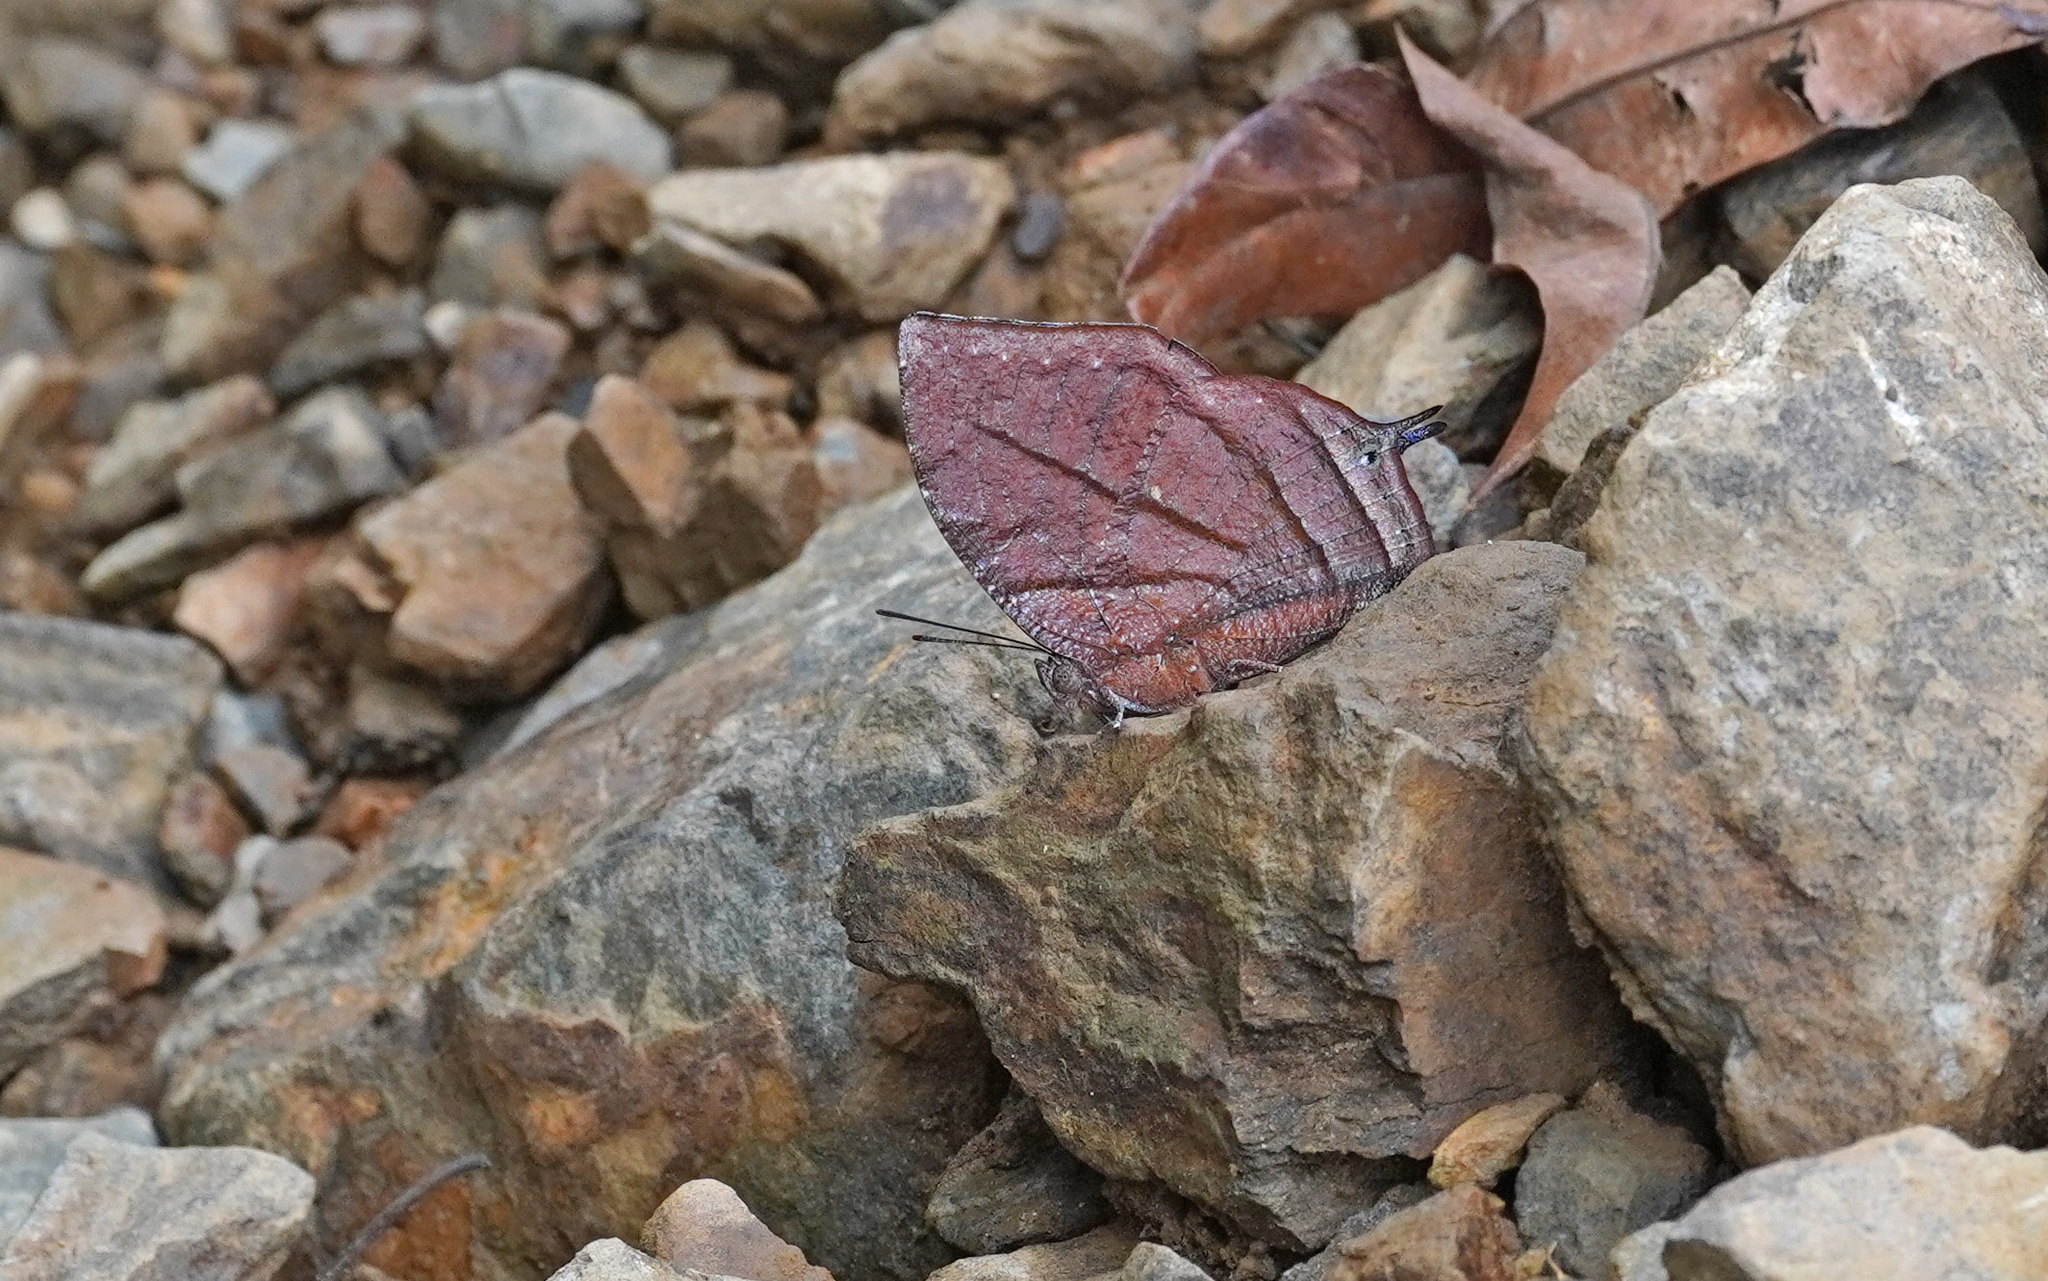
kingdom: Animalia
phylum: Arthropoda
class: Insecta
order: Lepidoptera
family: Nymphalidae
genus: Anaea
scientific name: Anaea philumena
